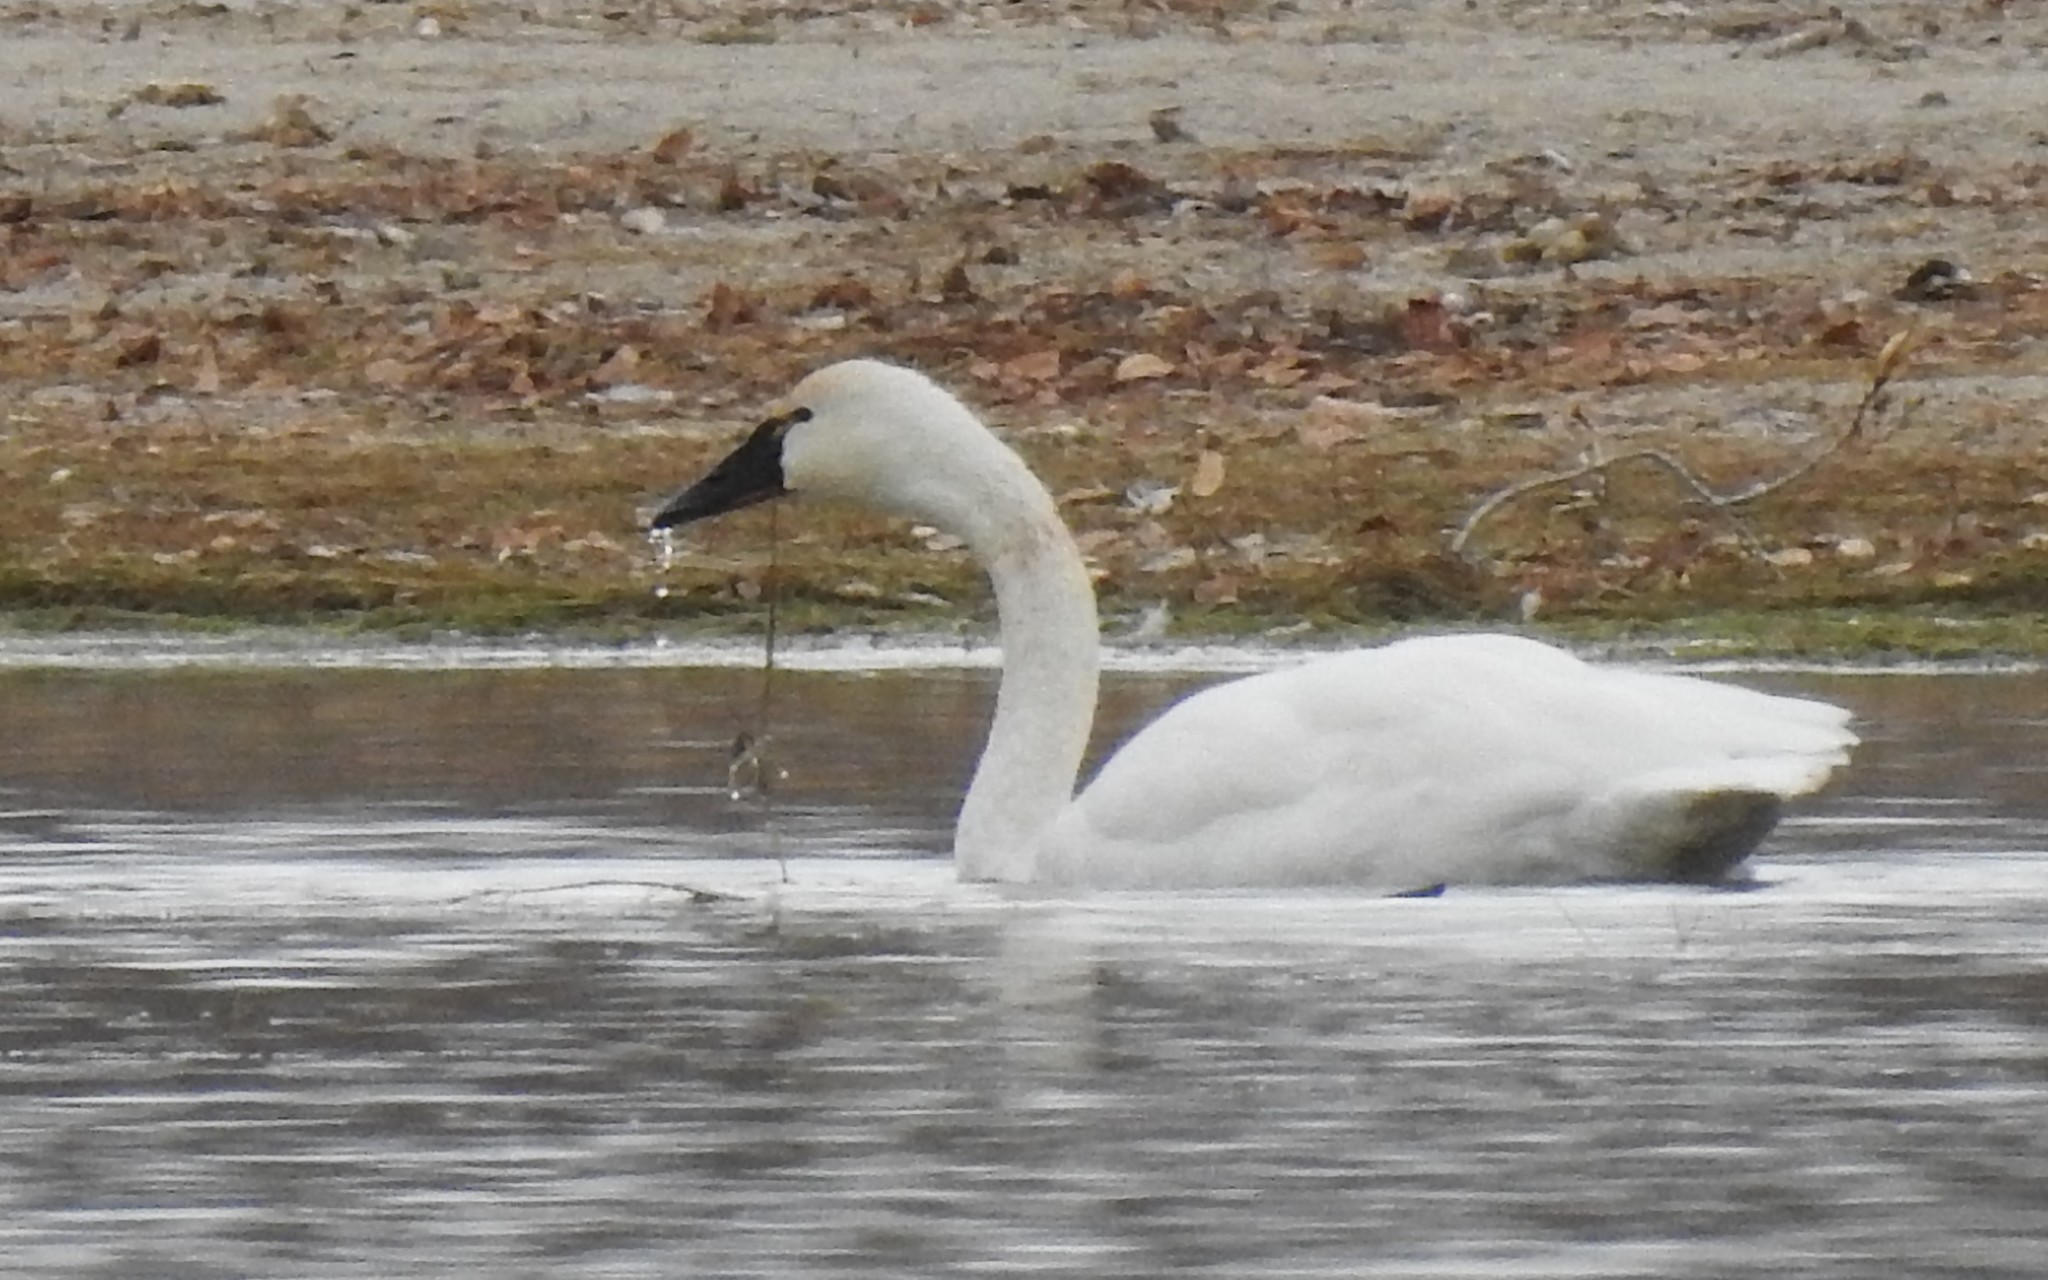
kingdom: Animalia
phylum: Chordata
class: Aves
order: Anseriformes
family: Anatidae
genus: Cygnus
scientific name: Cygnus columbianus
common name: Tundra swan
